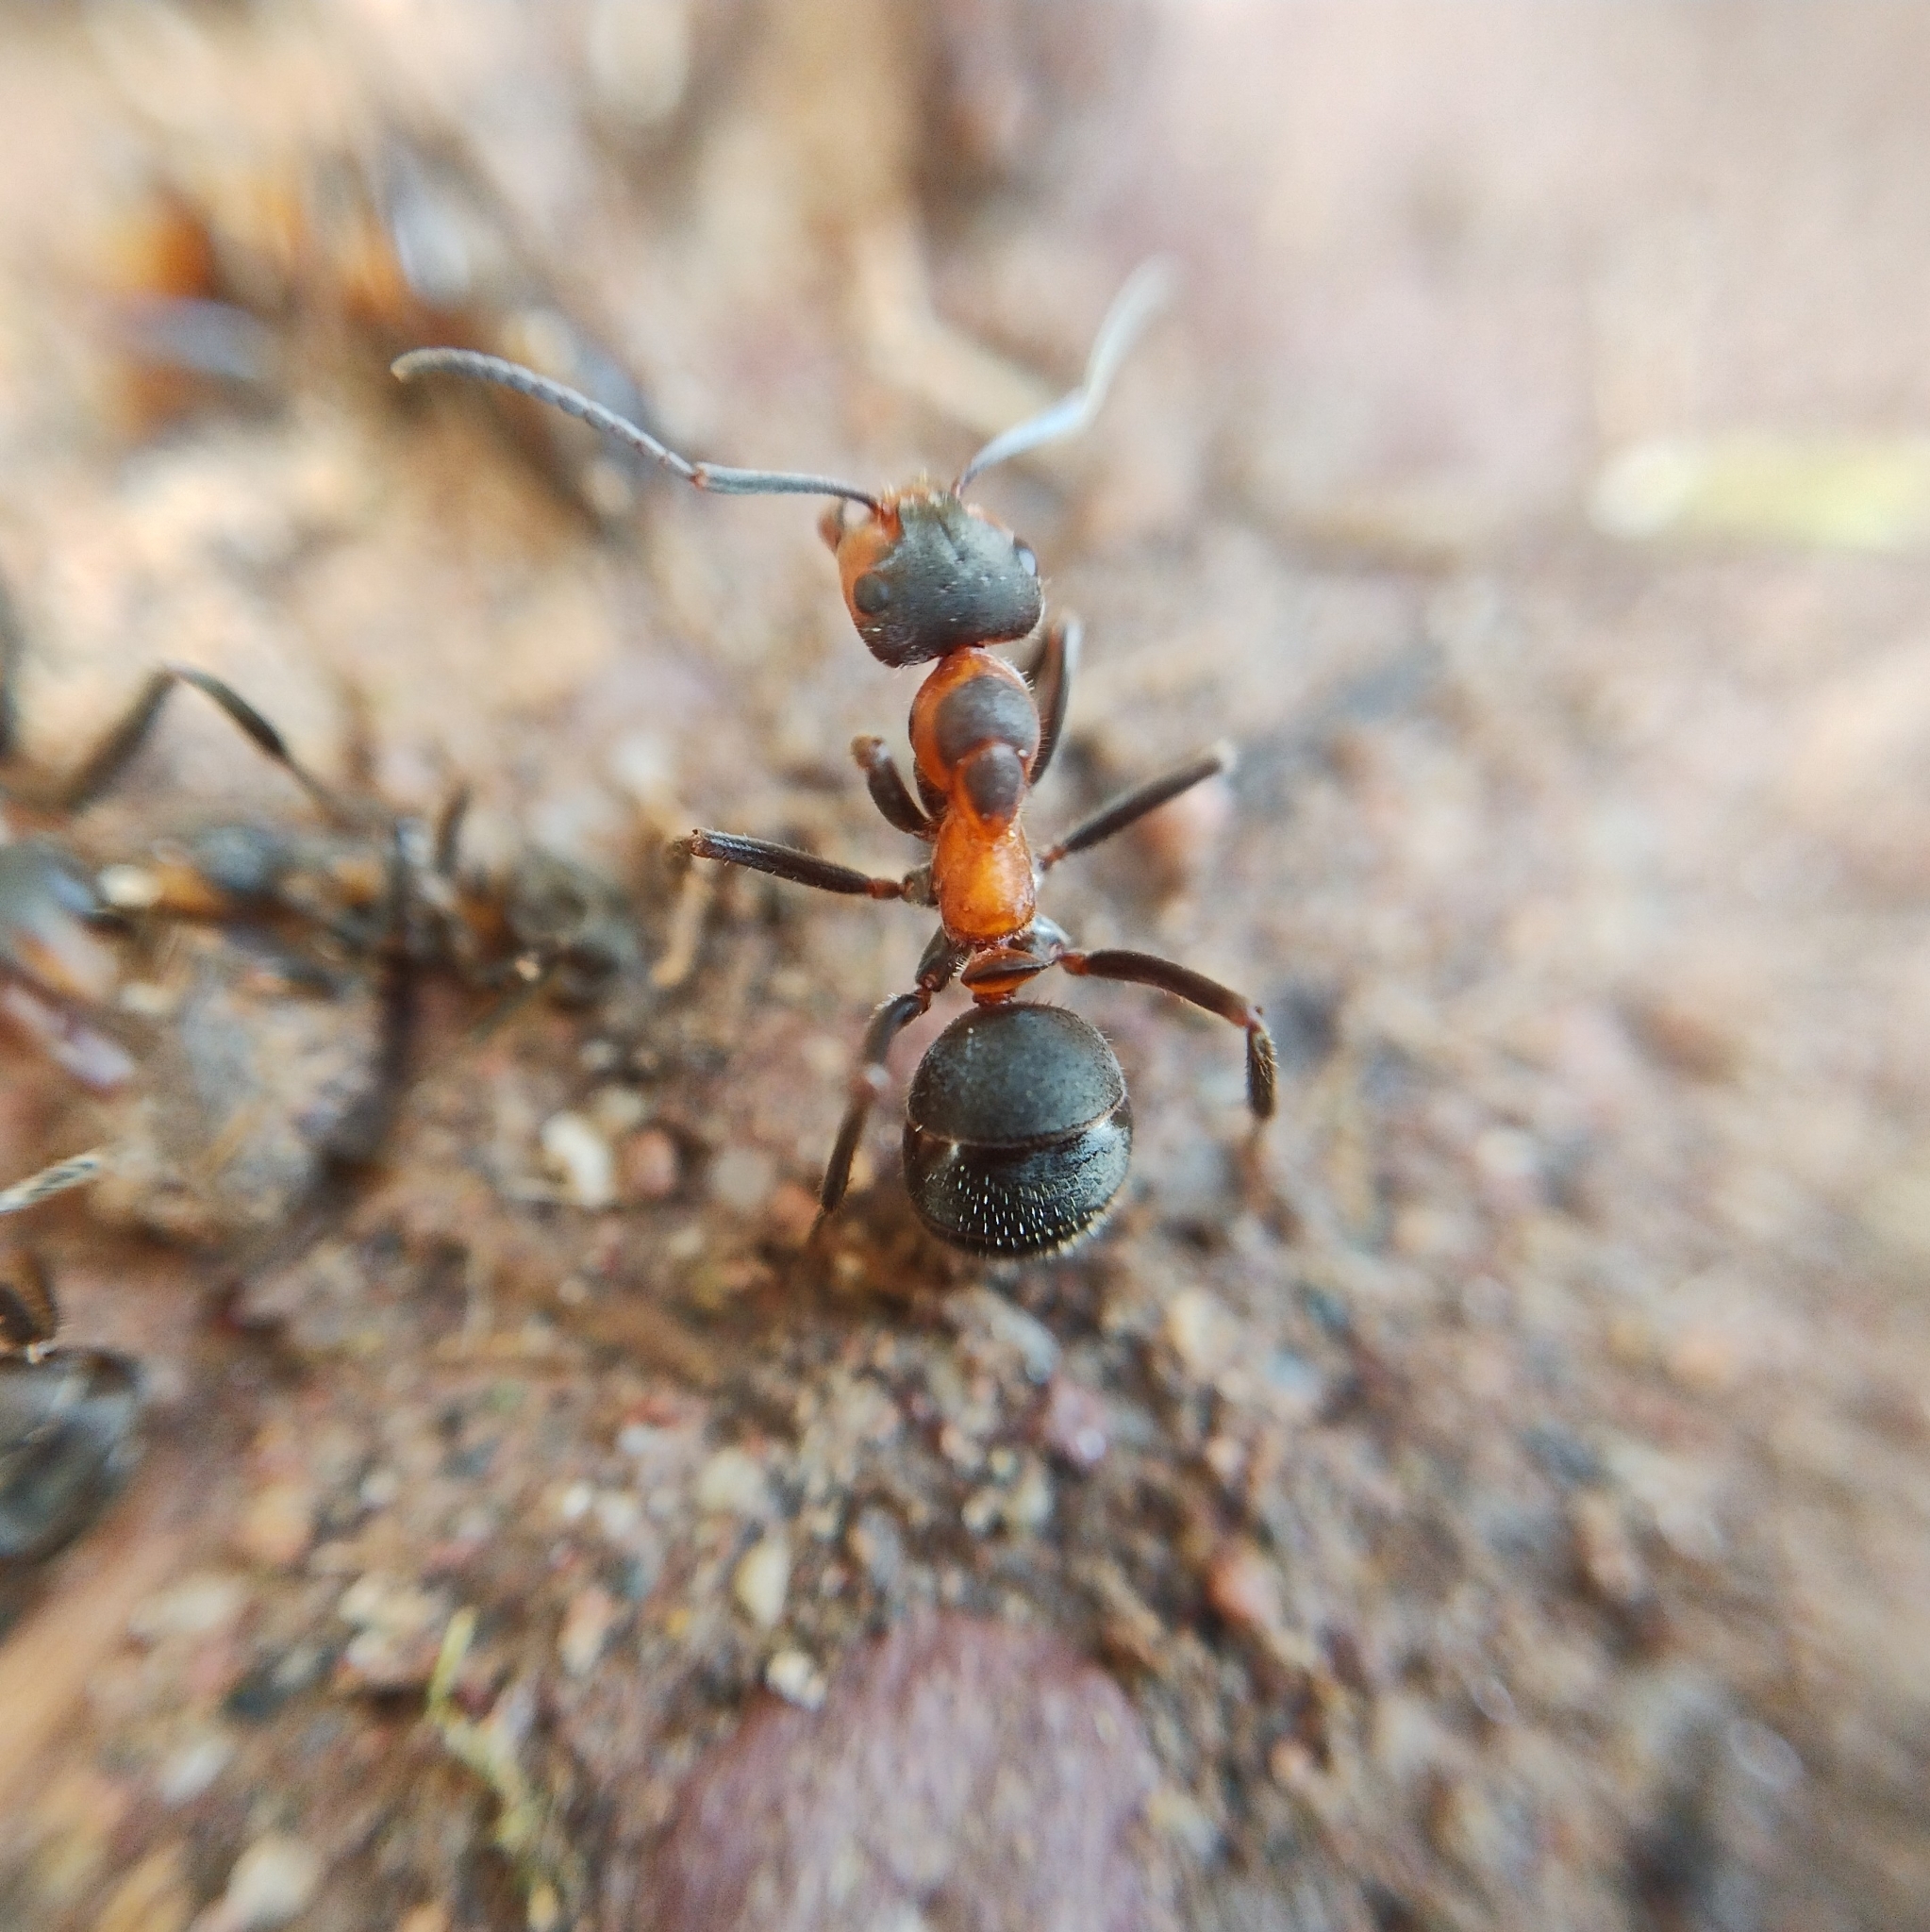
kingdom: Animalia
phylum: Arthropoda
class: Insecta
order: Hymenoptera
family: Formicidae
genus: Formica
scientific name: Formica pratensis
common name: European red wood ant
